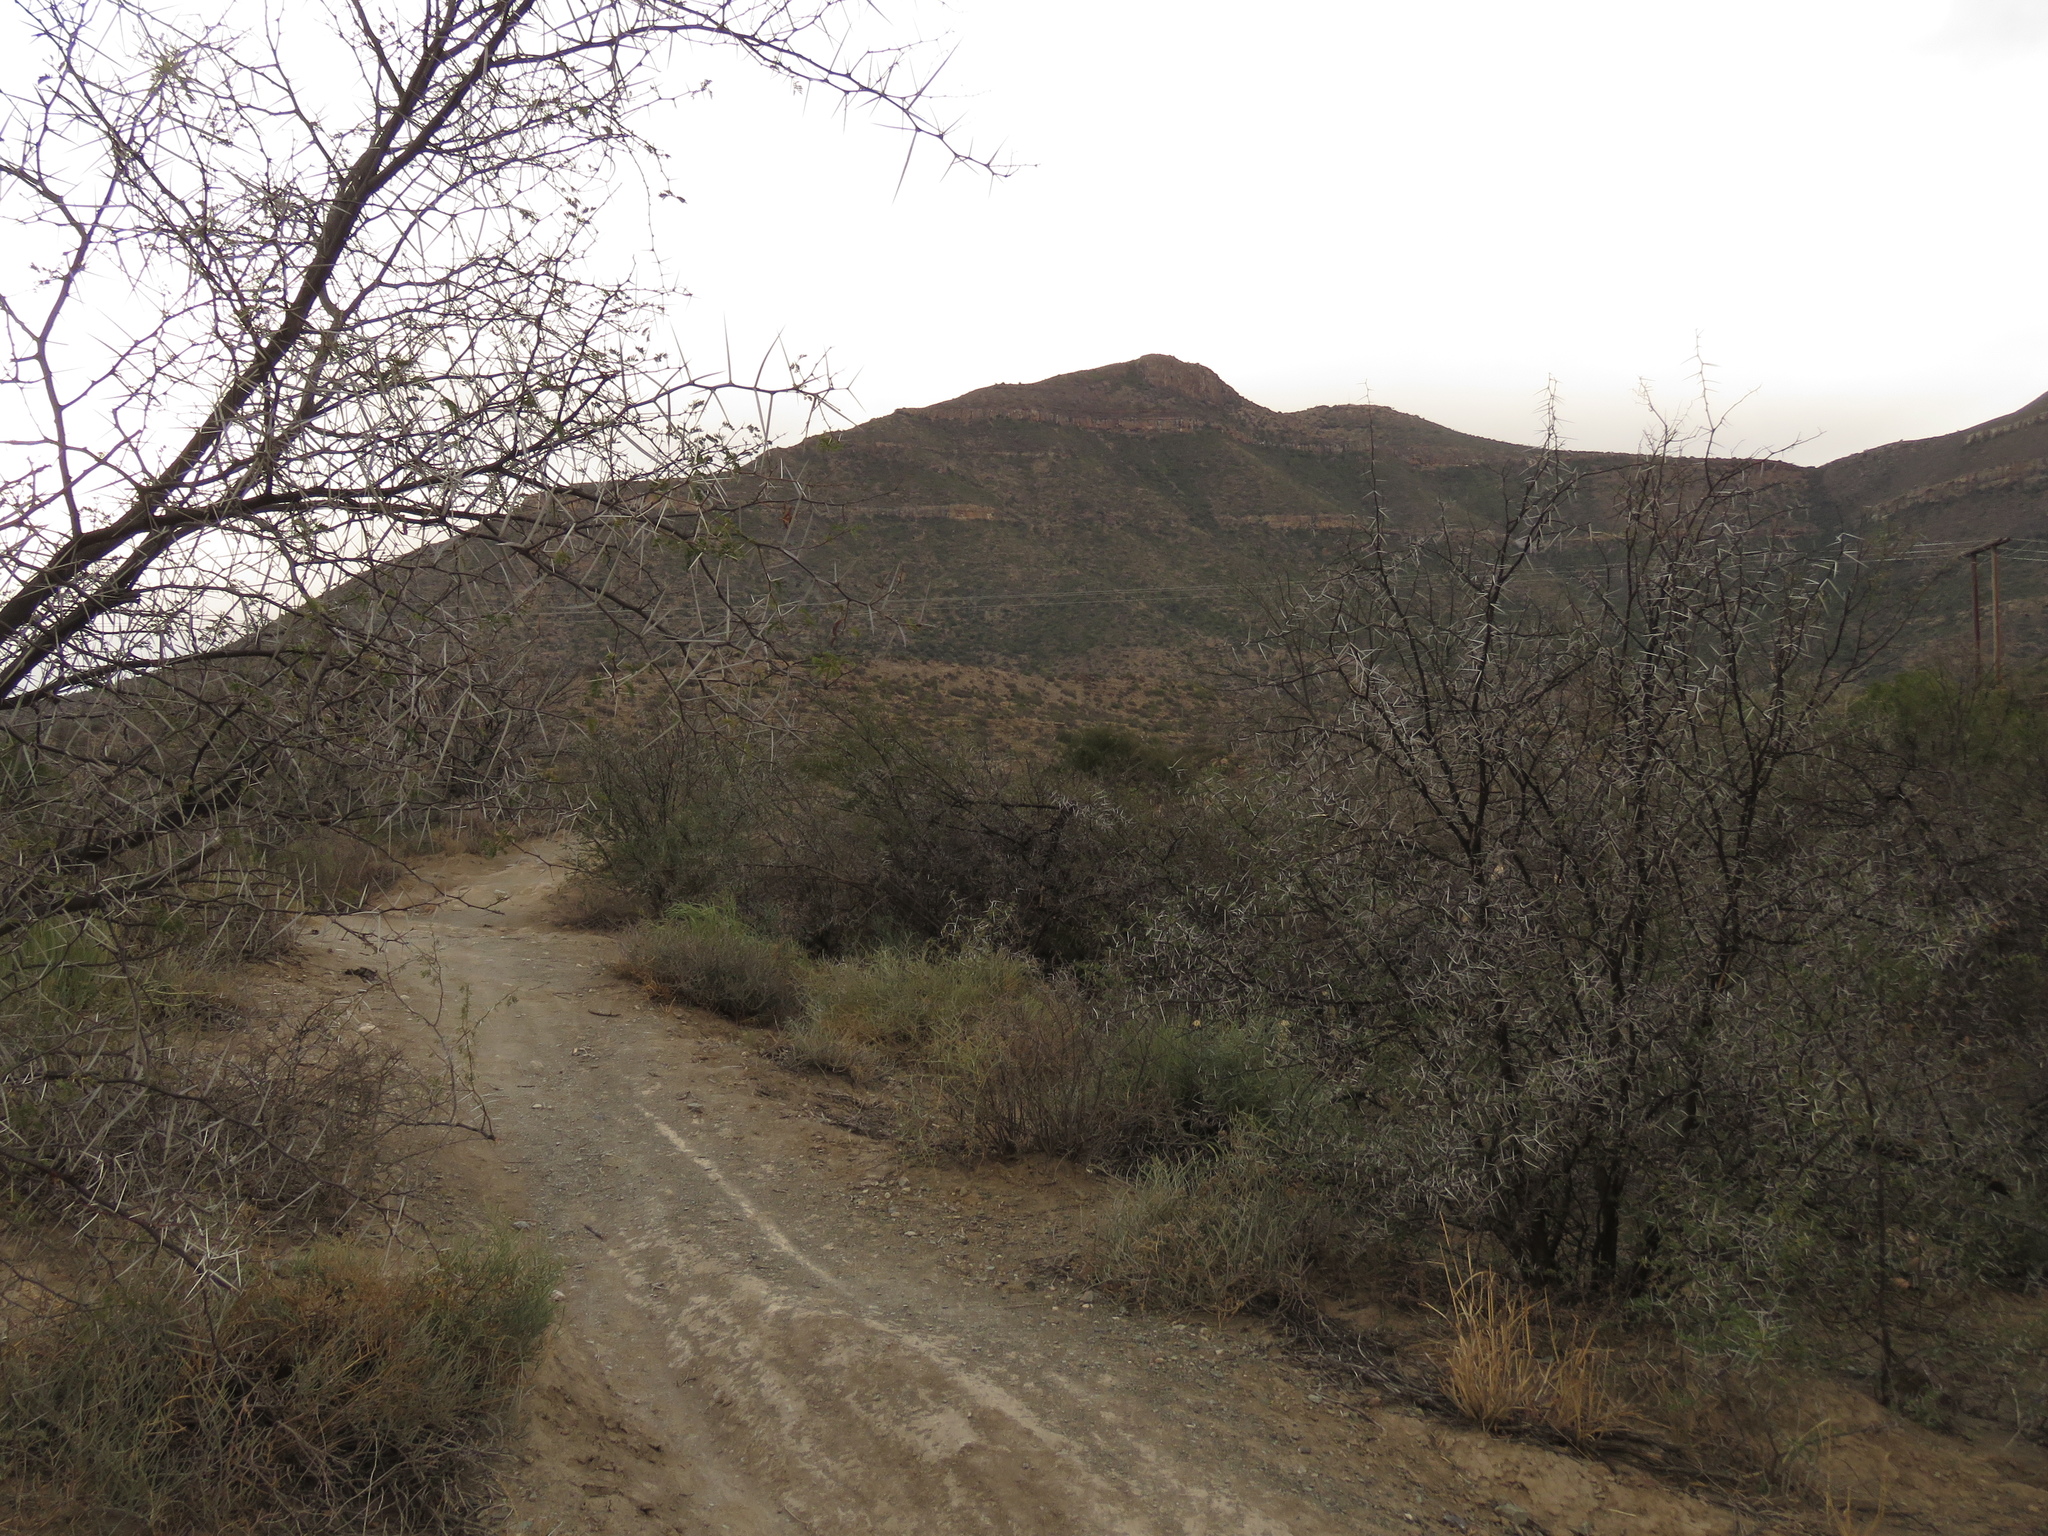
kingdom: Plantae
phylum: Tracheophyta
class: Magnoliopsida
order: Fabales
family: Fabaceae
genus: Vachellia
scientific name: Vachellia karroo
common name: Sweet thorn
